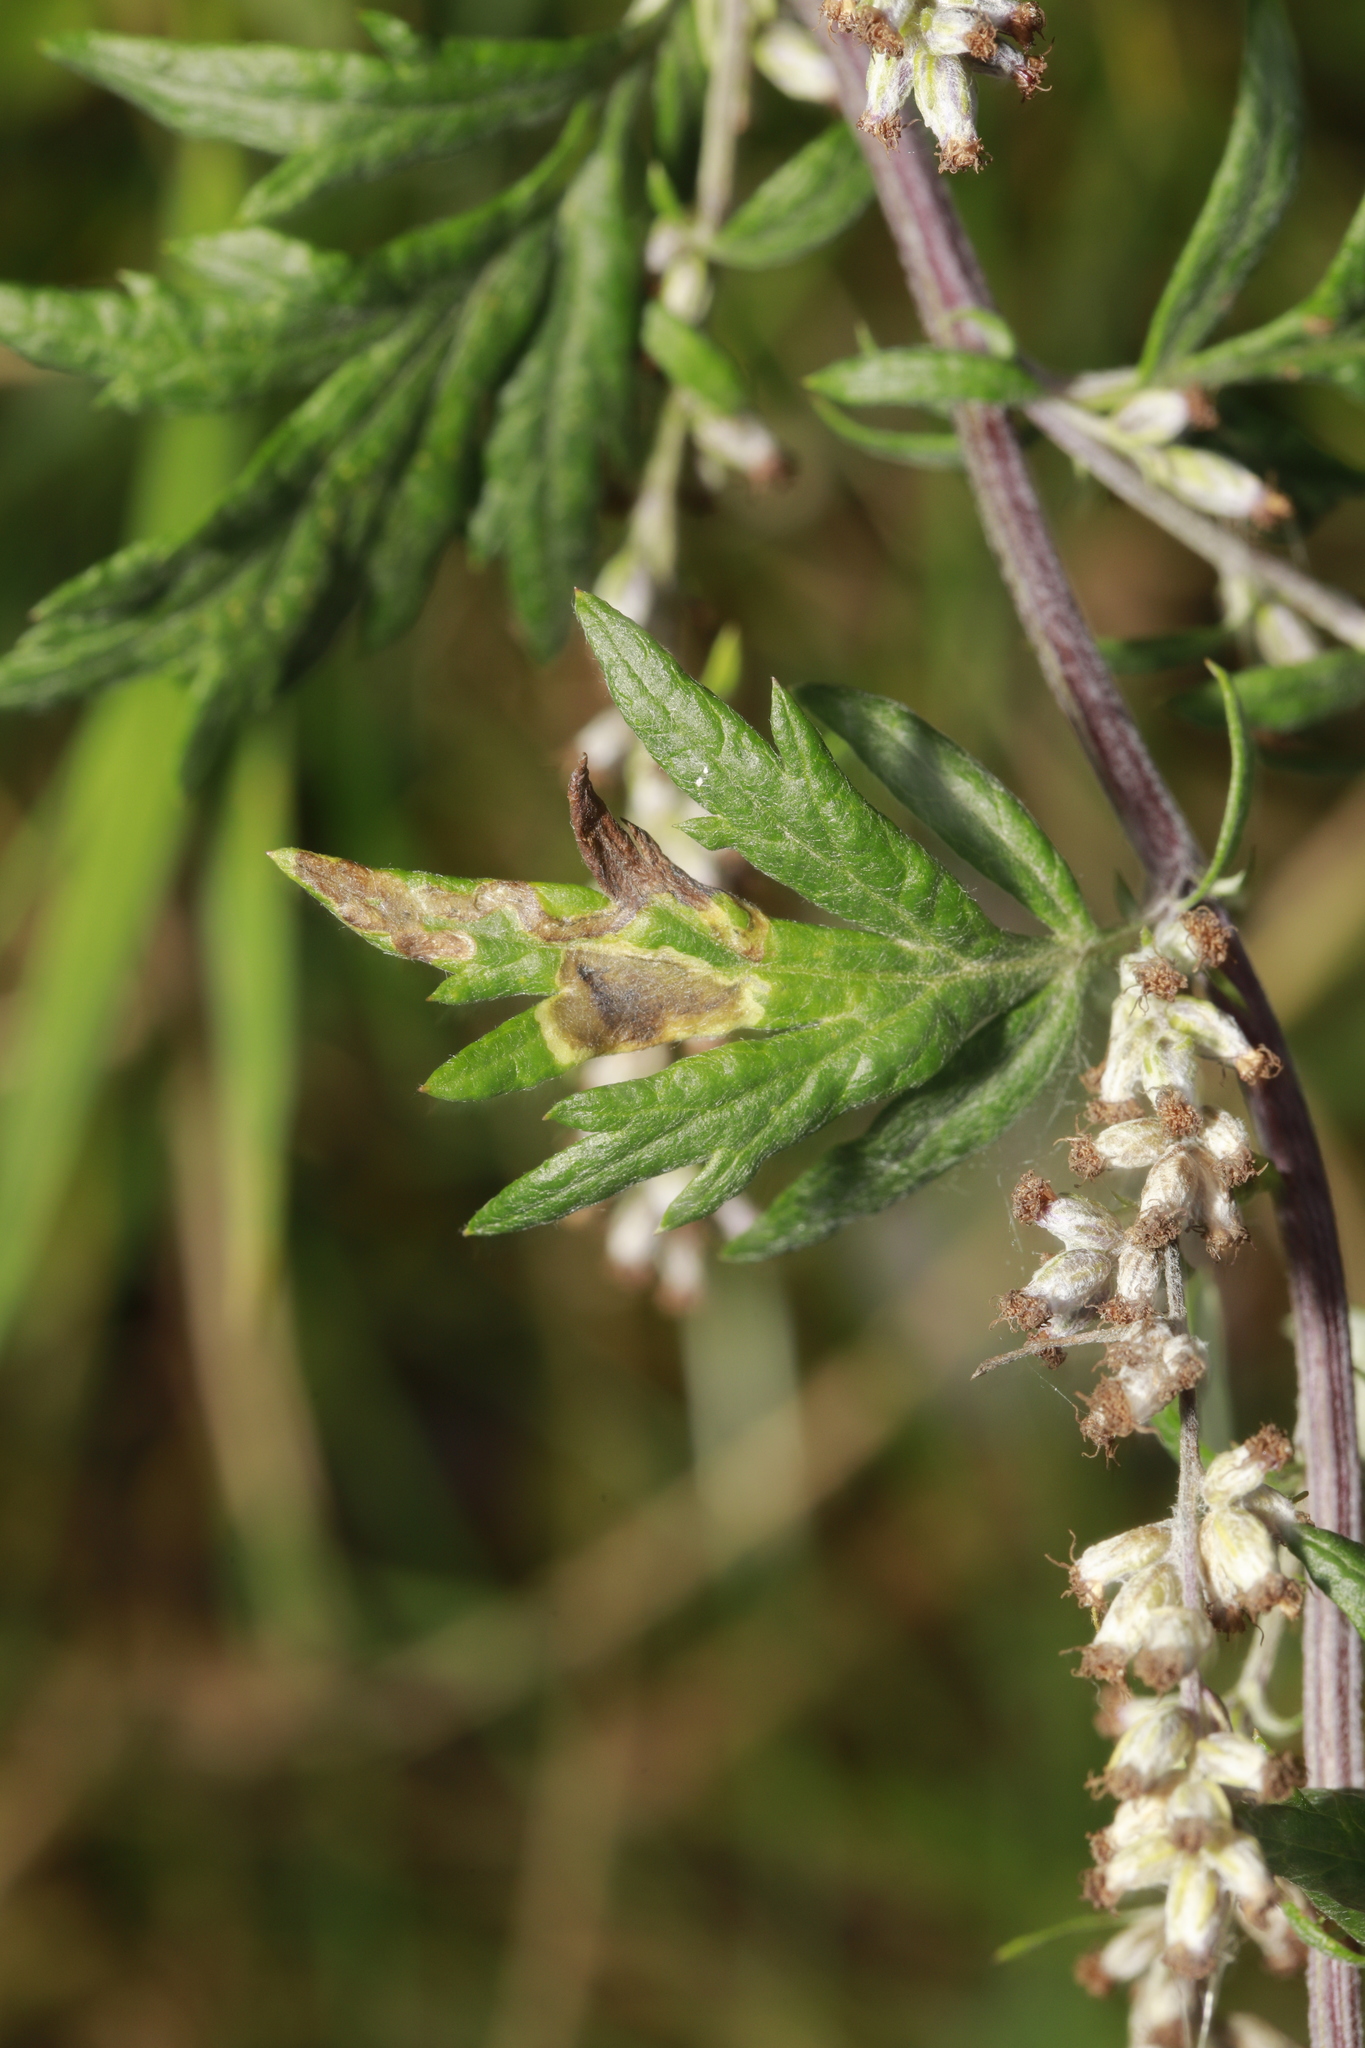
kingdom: Animalia
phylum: Arthropoda
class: Insecta
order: Diptera
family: Tephritidae
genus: Trypeta
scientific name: Trypeta artemisiae
